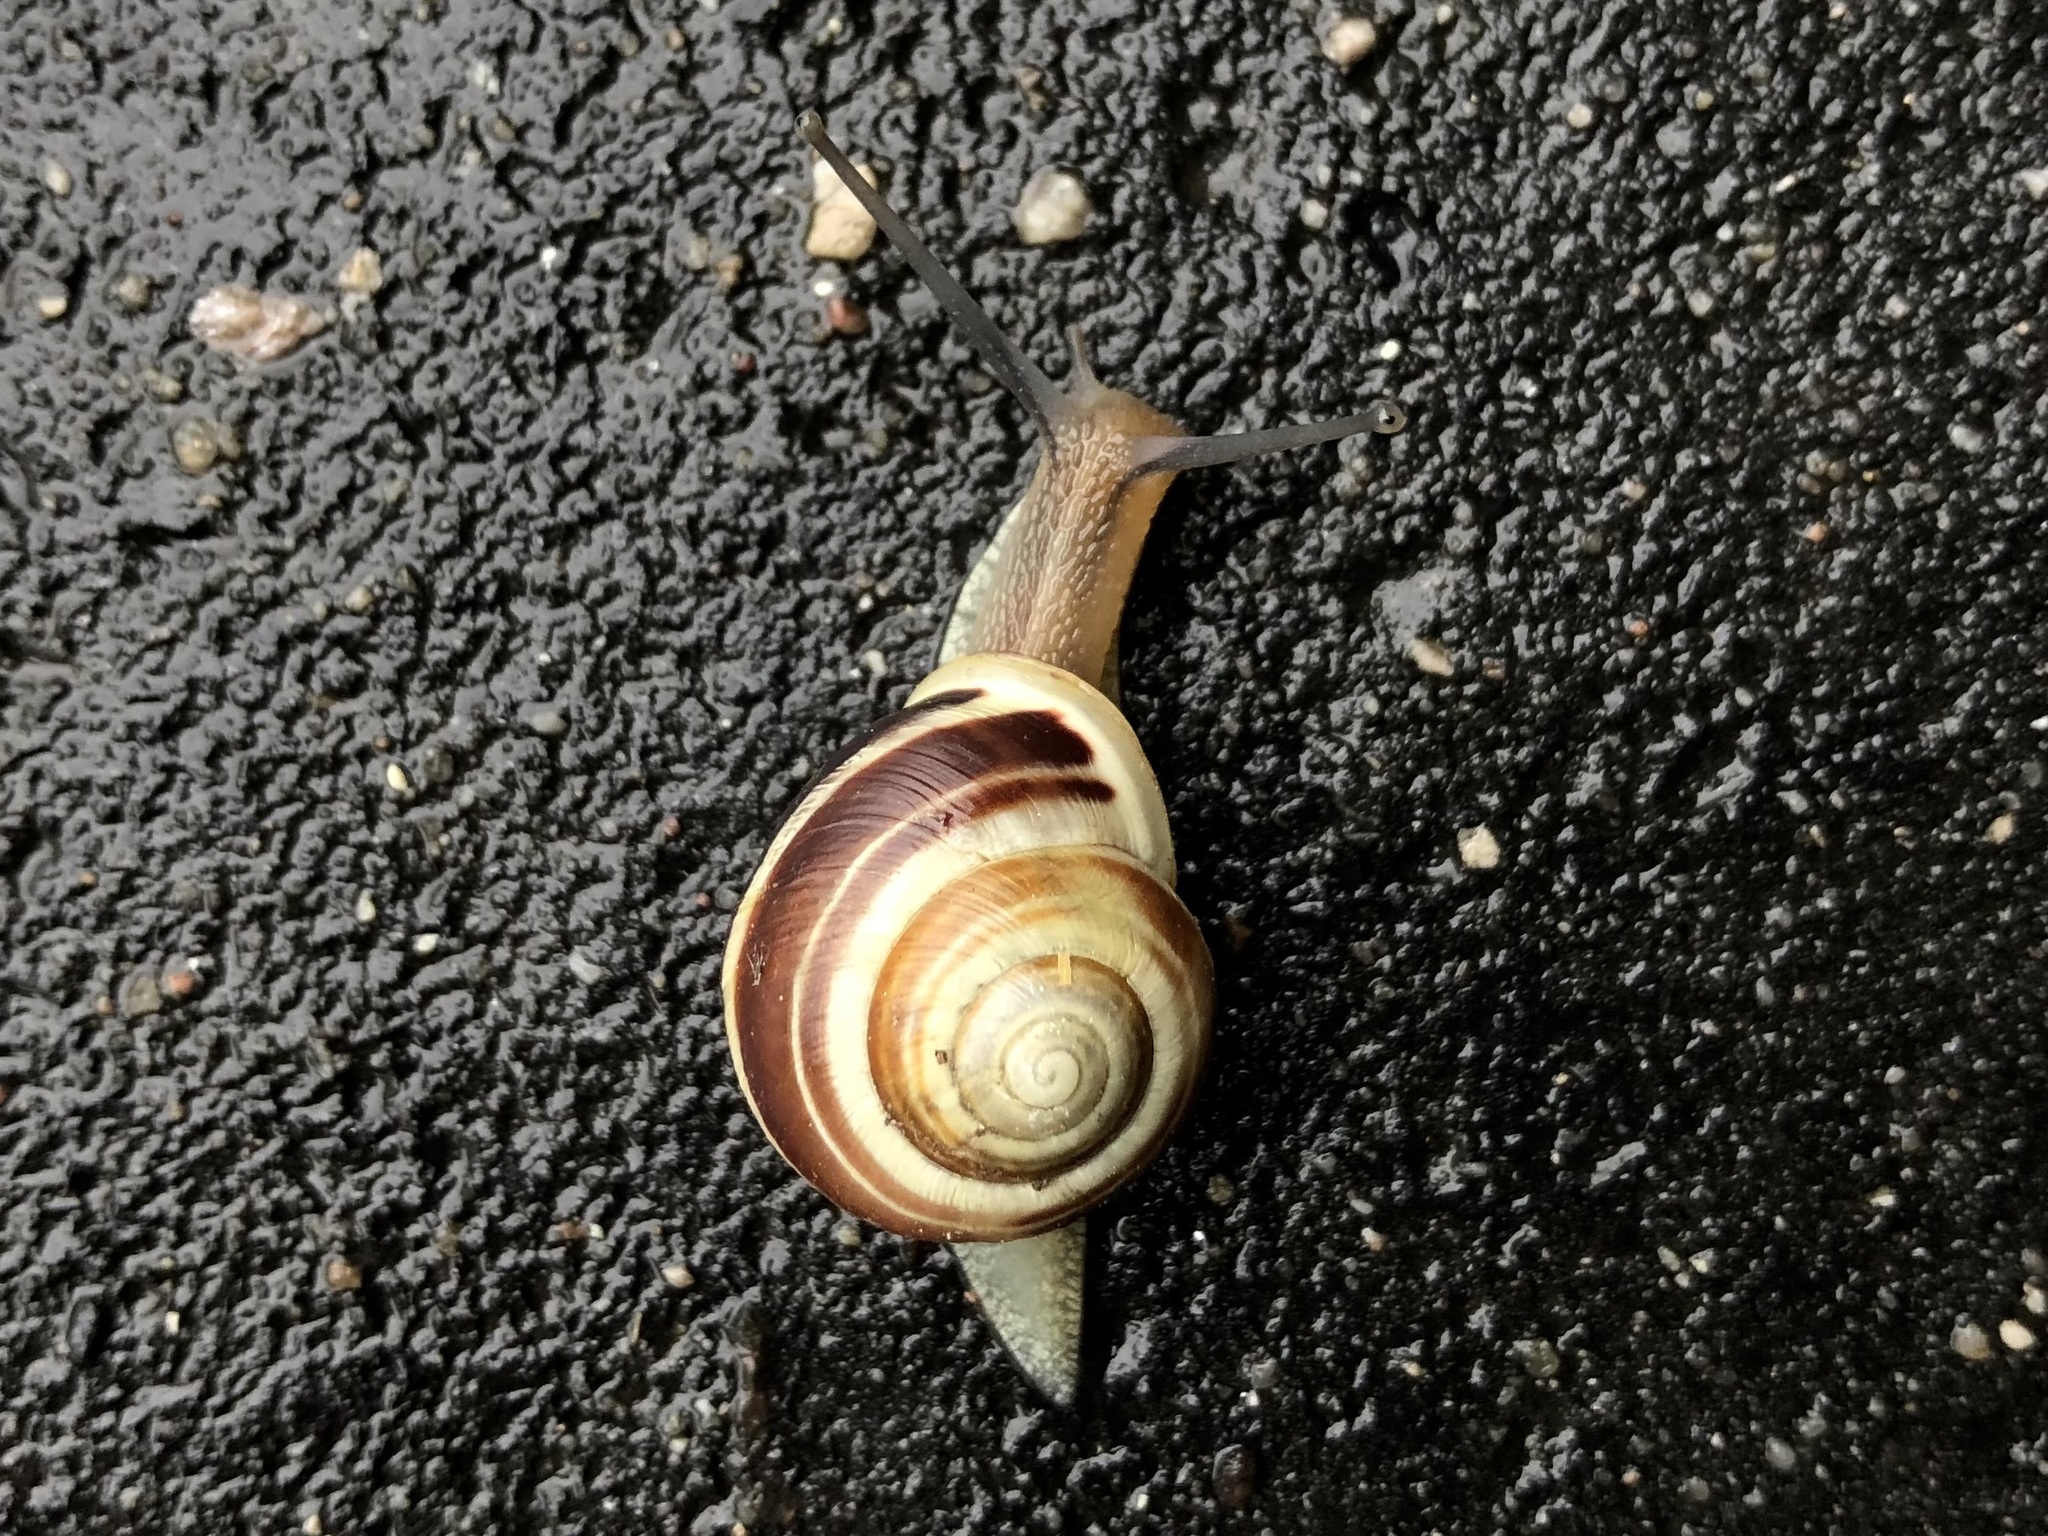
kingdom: Animalia
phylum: Mollusca
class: Gastropoda
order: Stylommatophora
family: Helicidae
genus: Cepaea
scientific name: Cepaea hortensis
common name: White-lip gardensnail
